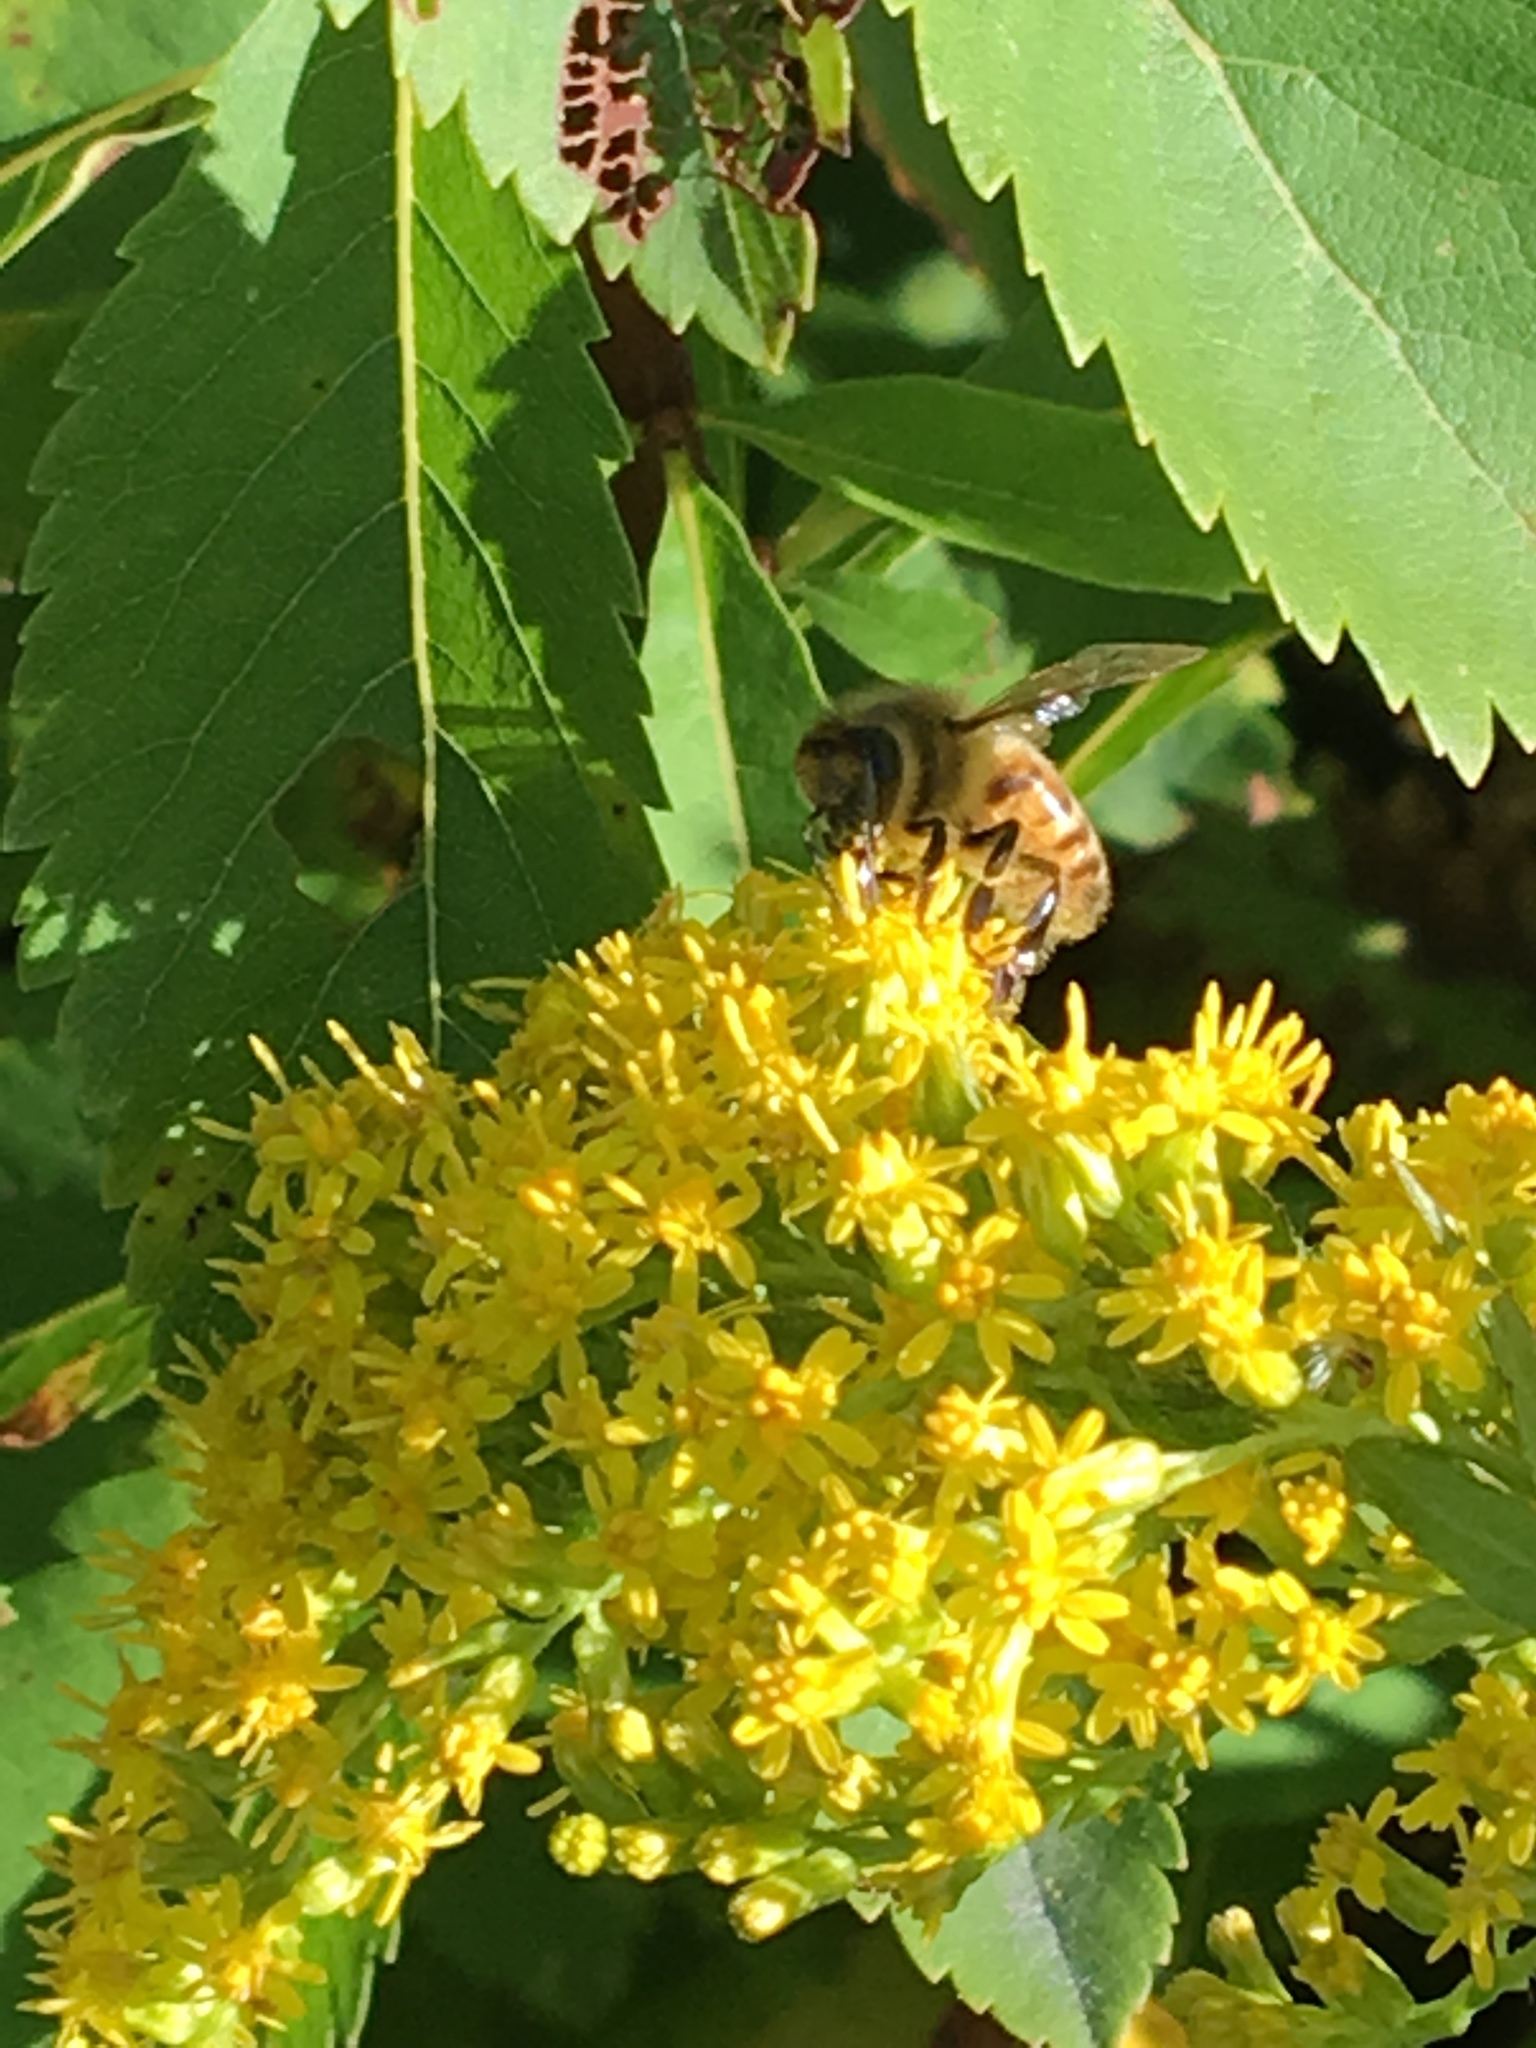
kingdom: Animalia
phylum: Arthropoda
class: Insecta
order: Hymenoptera
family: Apidae
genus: Apis
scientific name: Apis mellifera
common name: Honey bee
